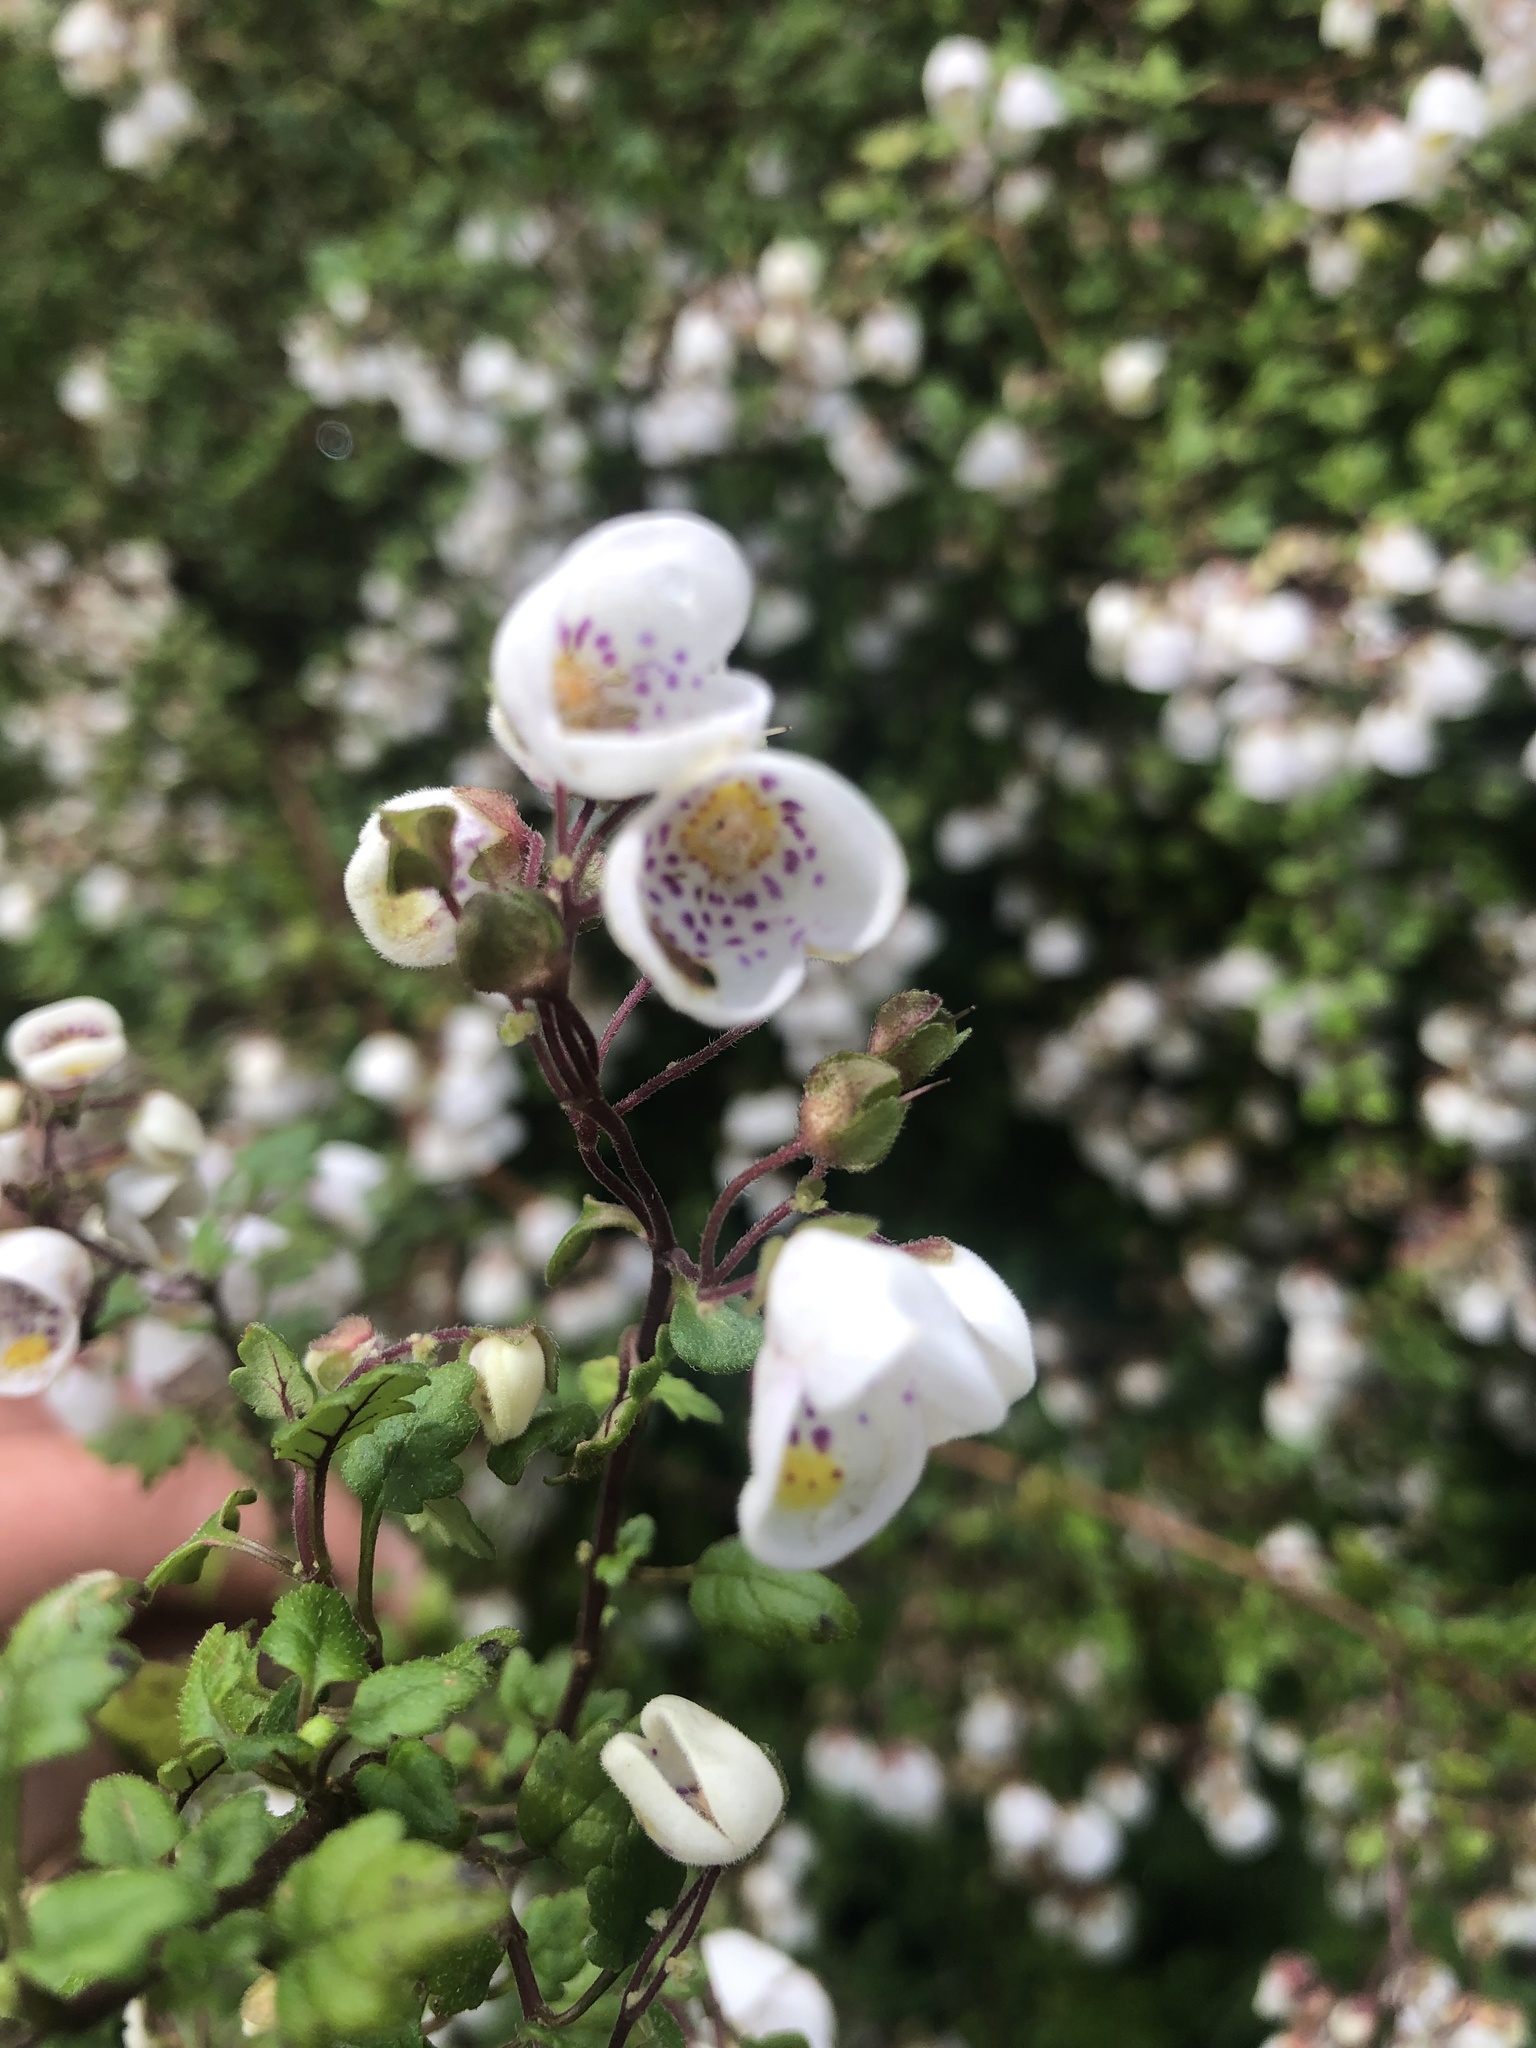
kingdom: Plantae
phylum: Tracheophyta
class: Magnoliopsida
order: Lamiales
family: Calceolariaceae
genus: Jovellana
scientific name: Jovellana violacea
